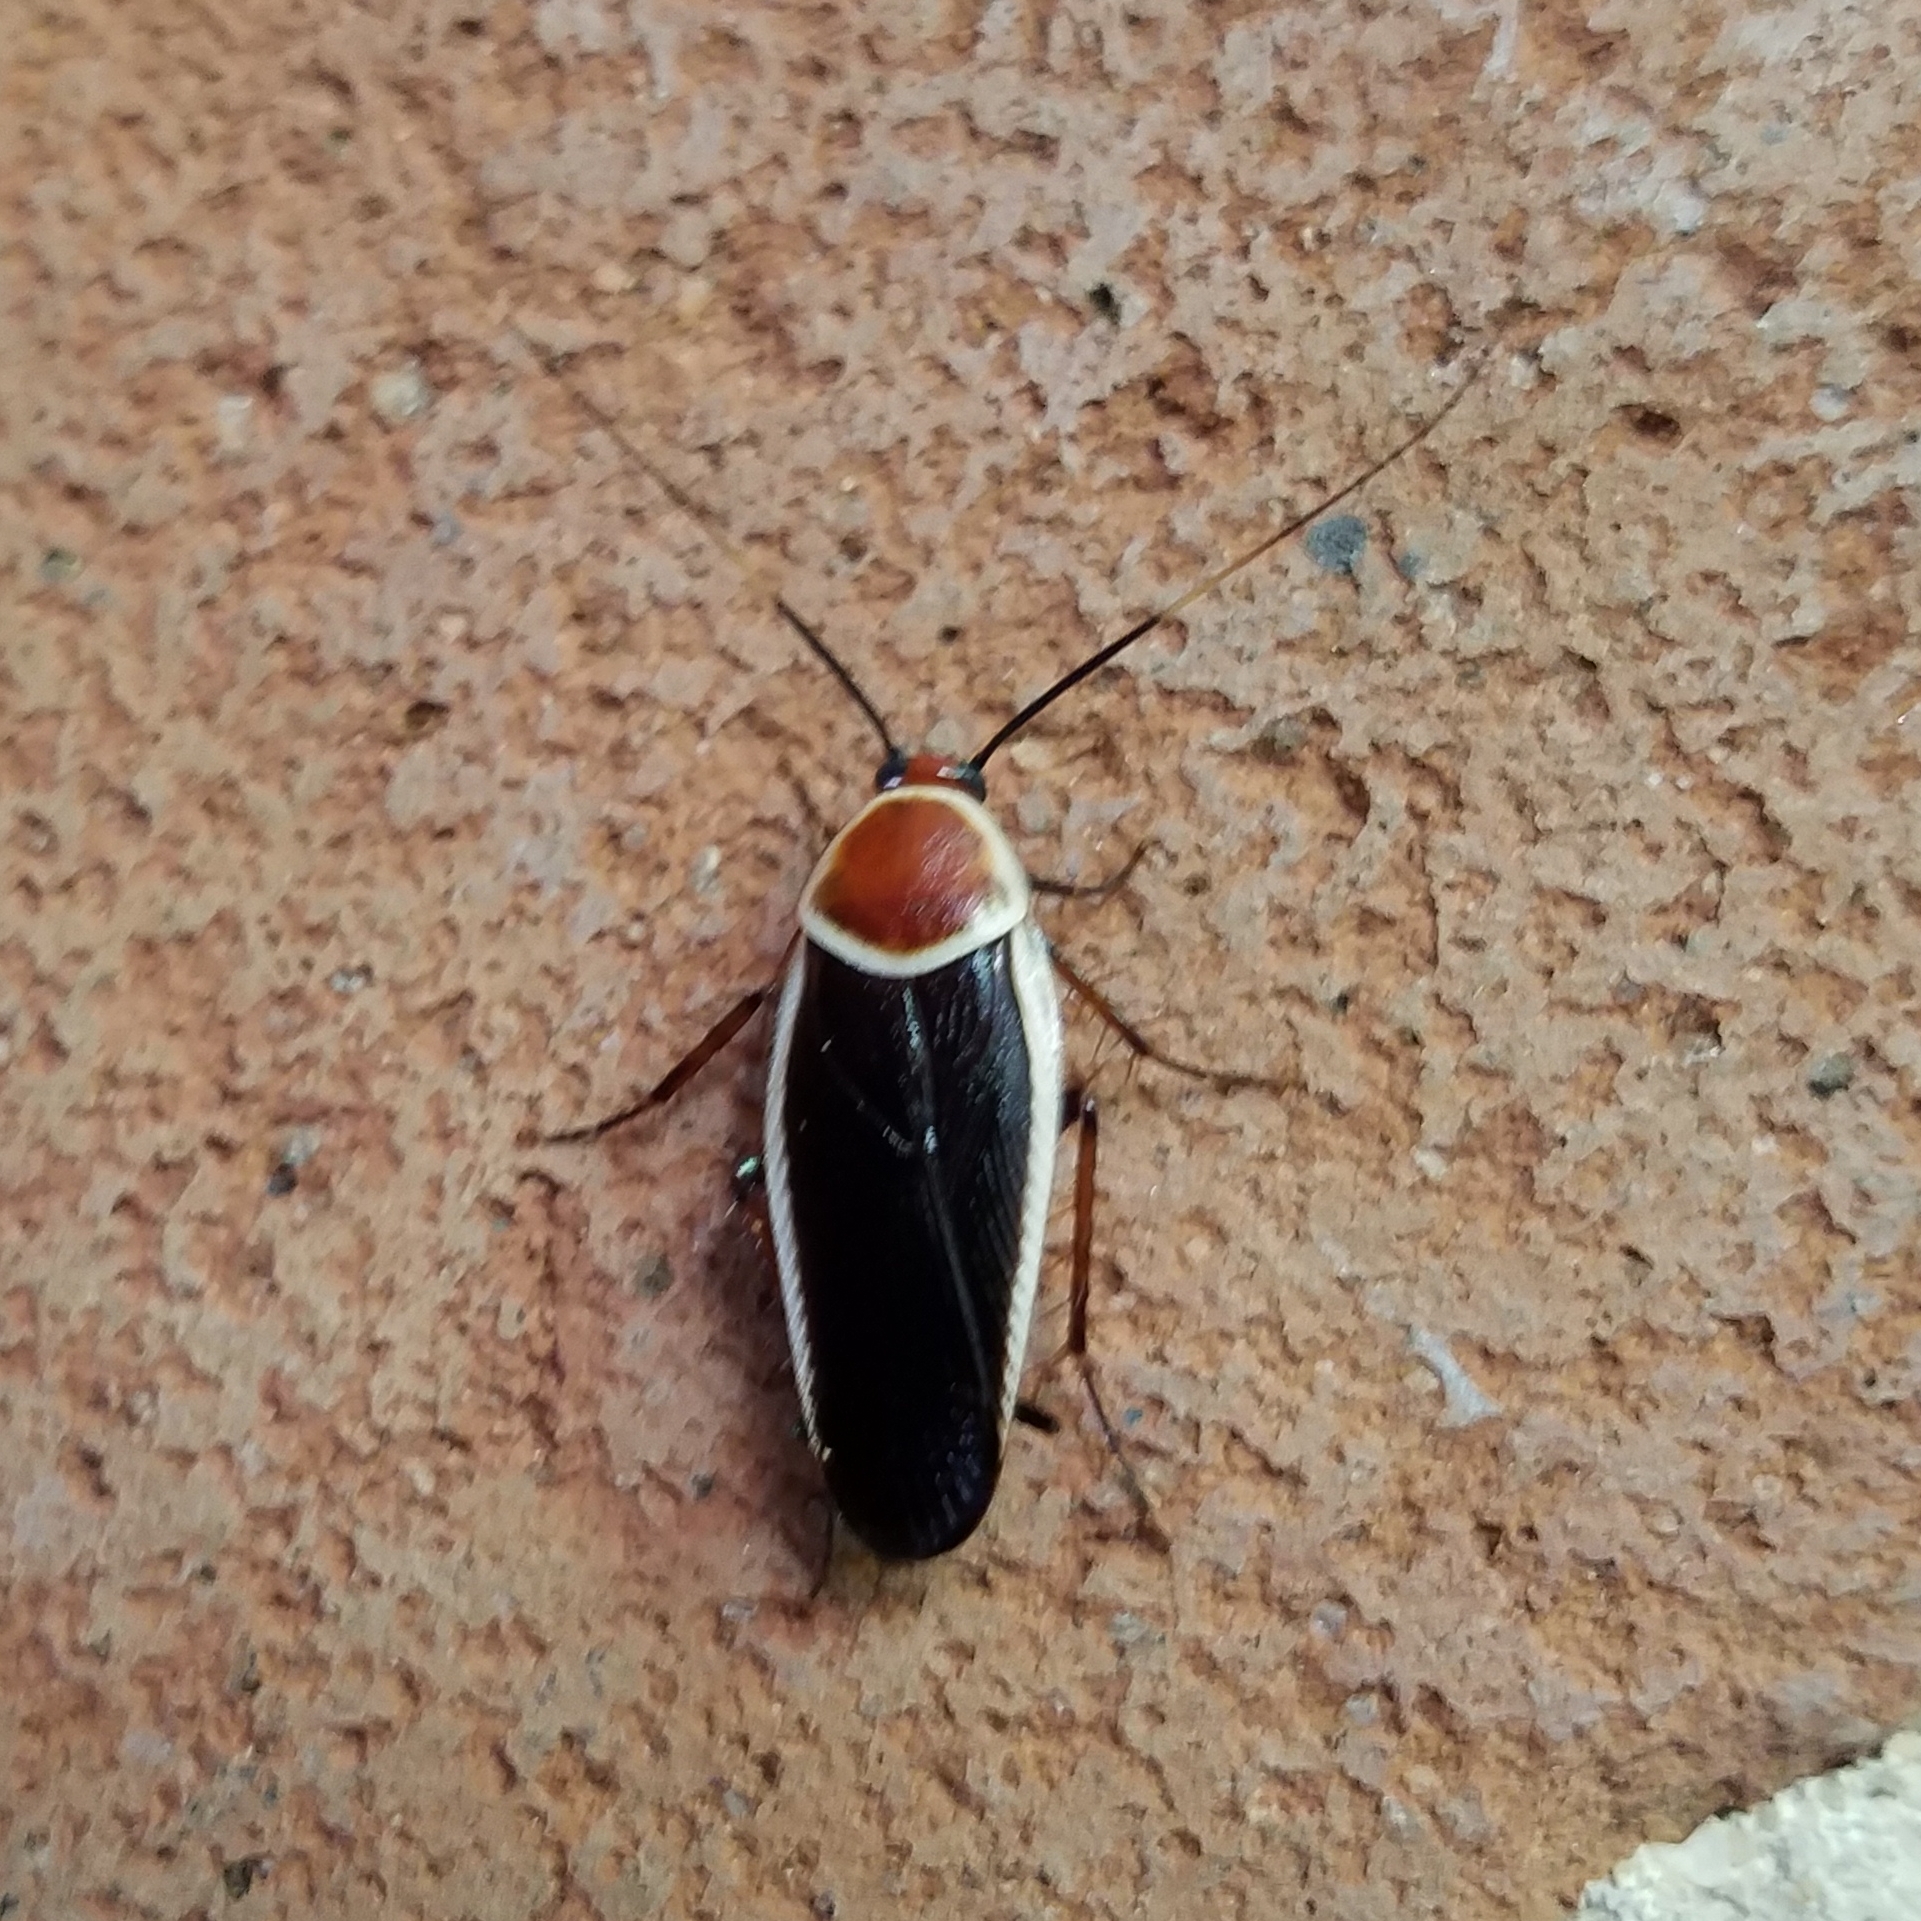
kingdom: Animalia
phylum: Arthropoda
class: Insecta
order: Blattodea
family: Ectobiidae
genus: Pseudomops
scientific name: Pseudomops septentrionalis
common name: Pale-bordered field cockroach
